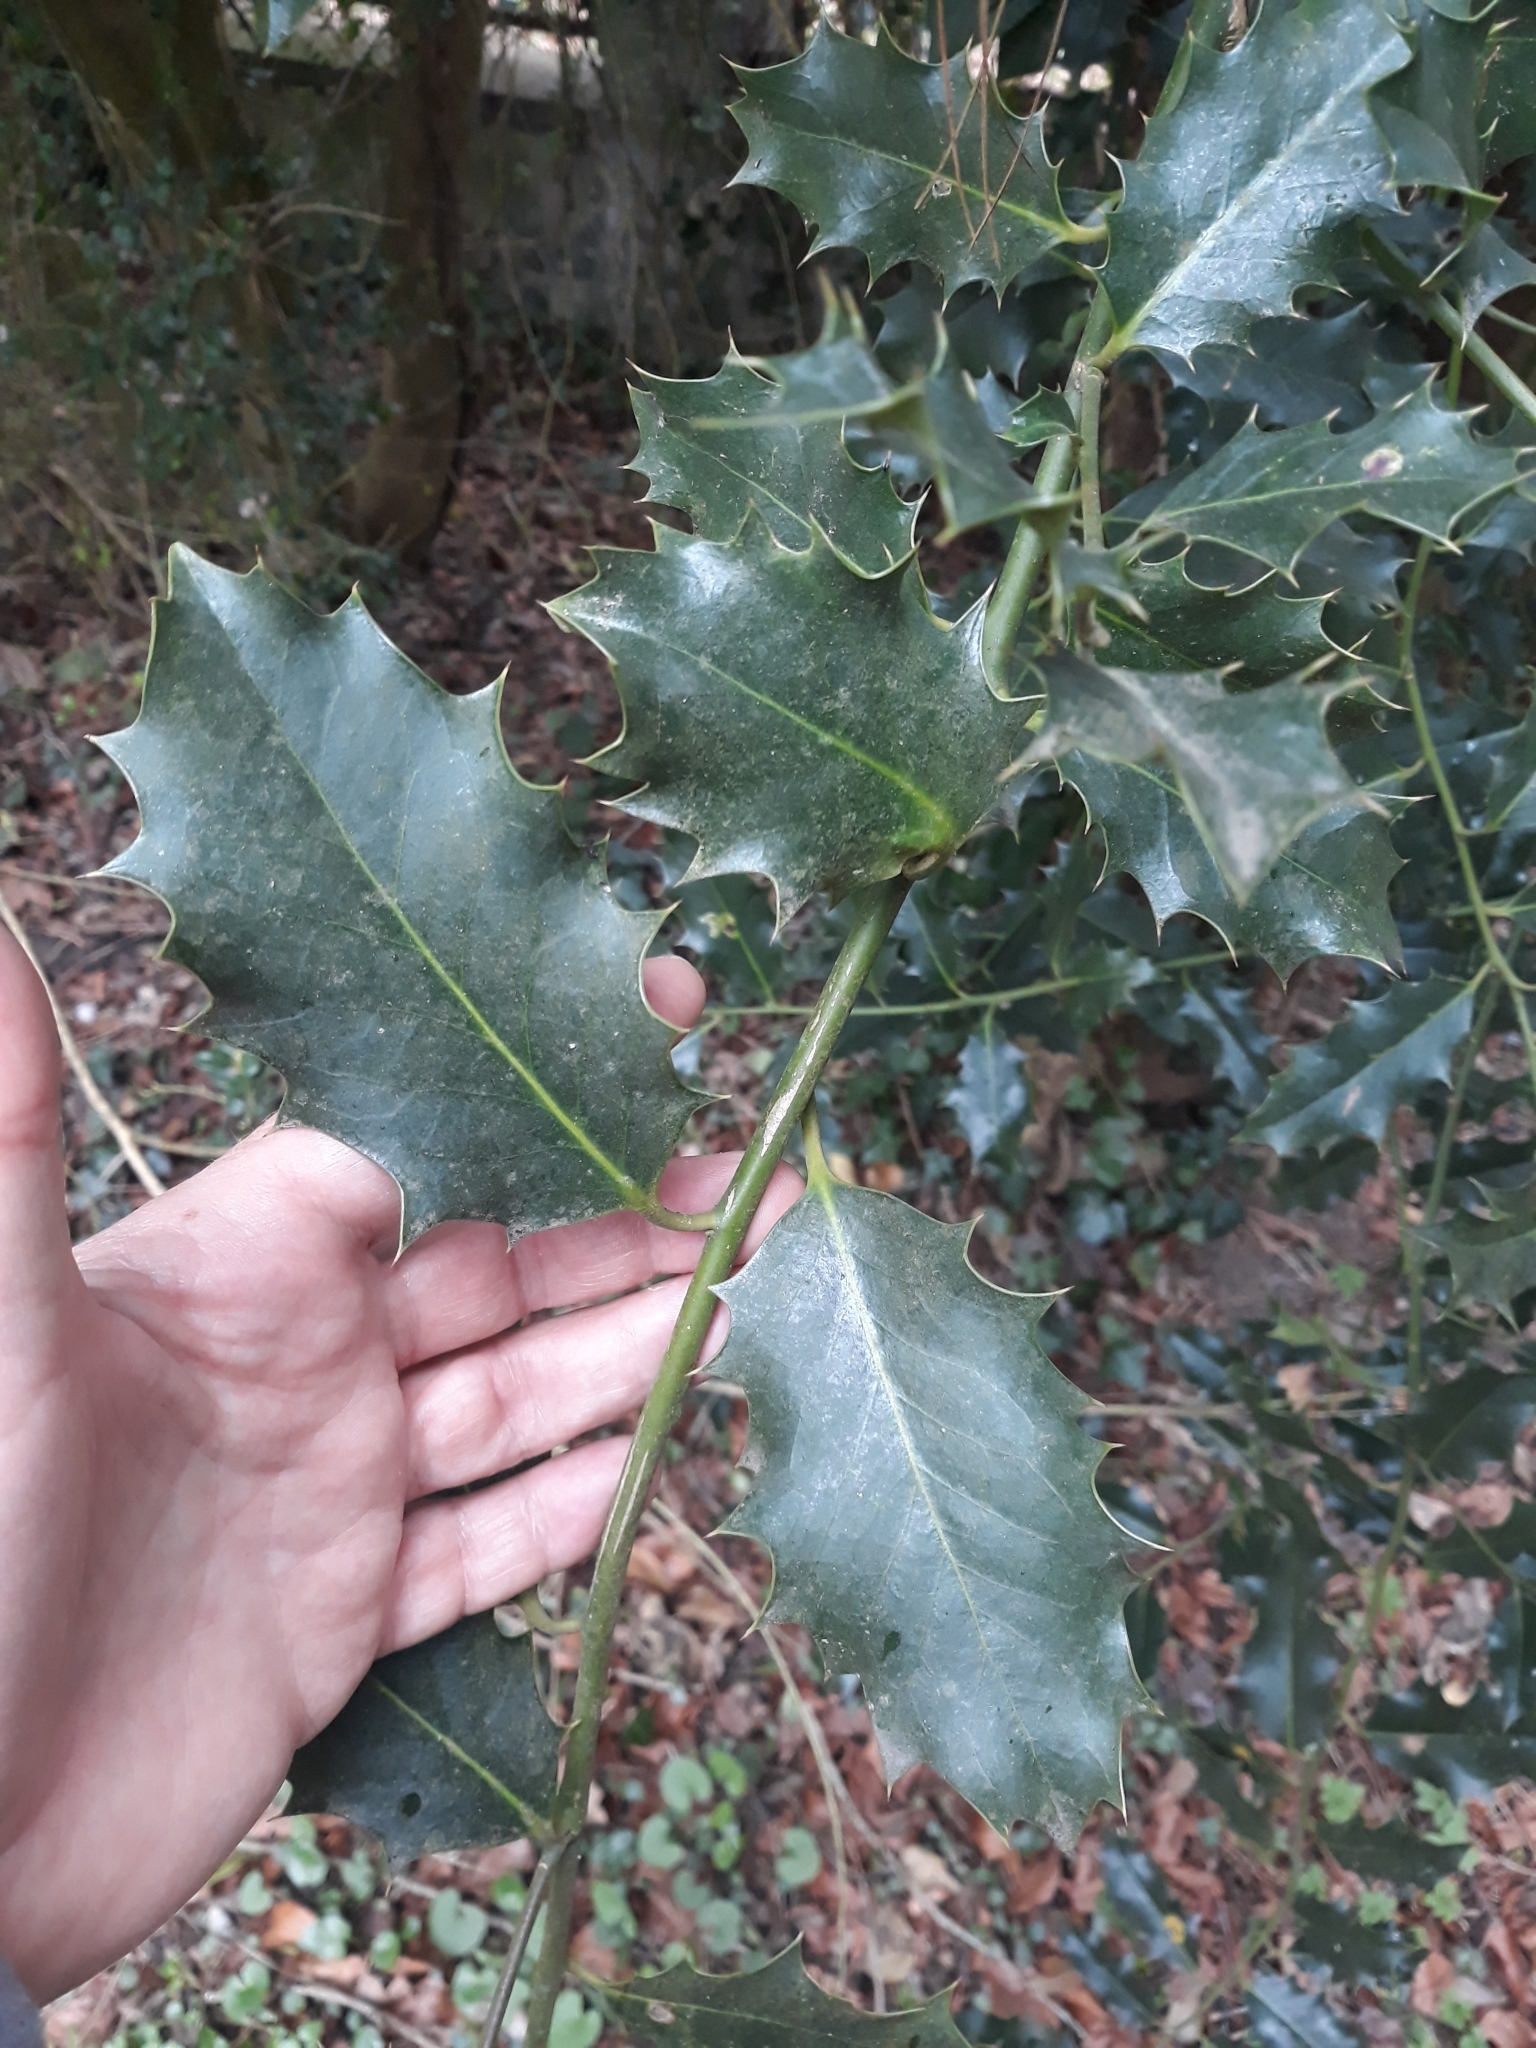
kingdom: Plantae
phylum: Tracheophyta
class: Magnoliopsida
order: Aquifoliales
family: Aquifoliaceae
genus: Ilex
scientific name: Ilex aquifolium
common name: English holly
